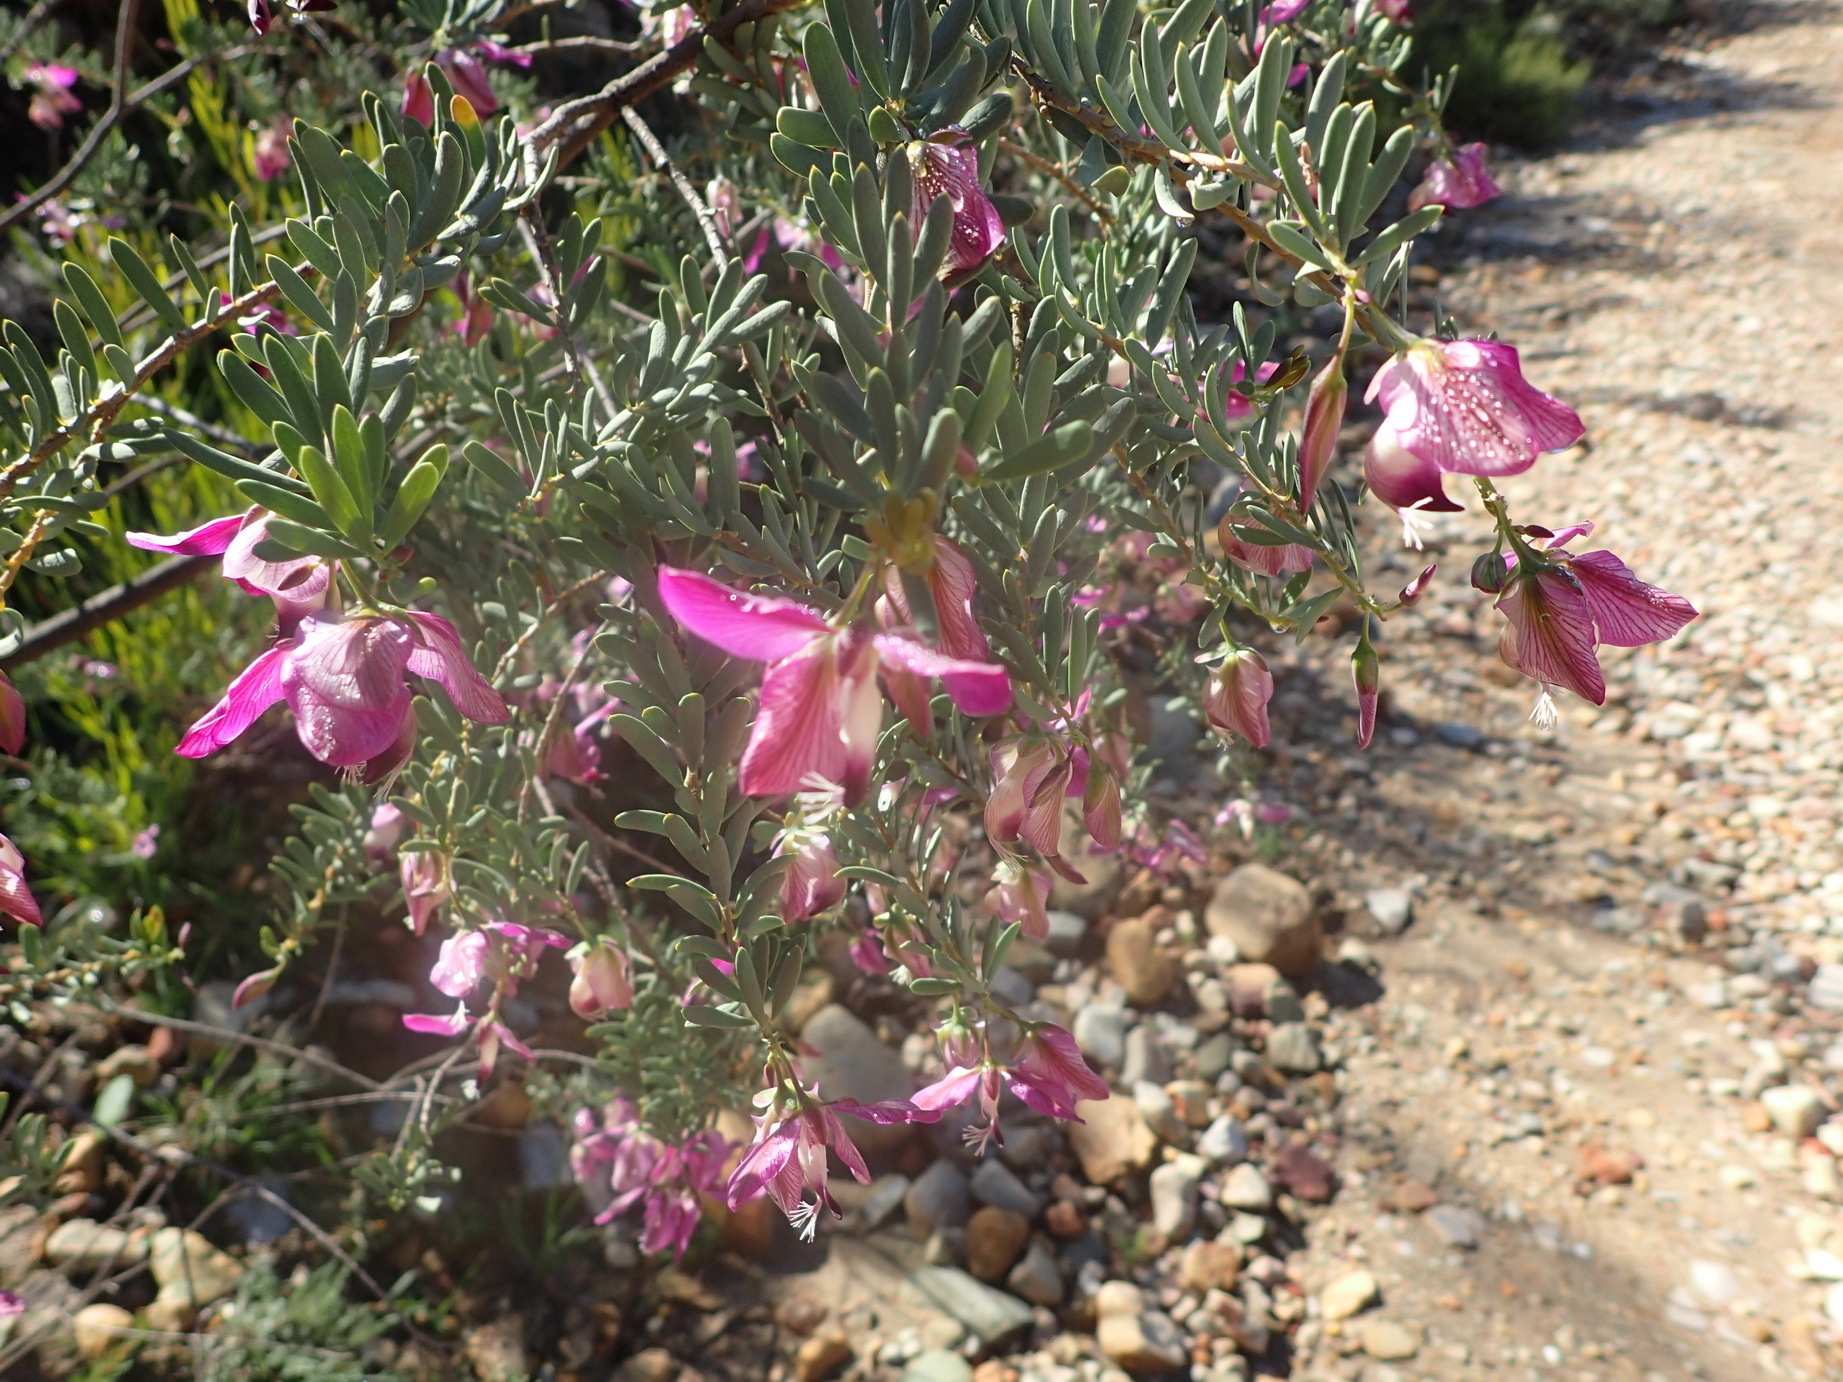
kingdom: Plantae
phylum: Tracheophyta
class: Magnoliopsida
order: Fabales
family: Polygalaceae
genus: Polygala
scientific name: Polygala myrtifolia
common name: Myrtle-leaf milkwort
